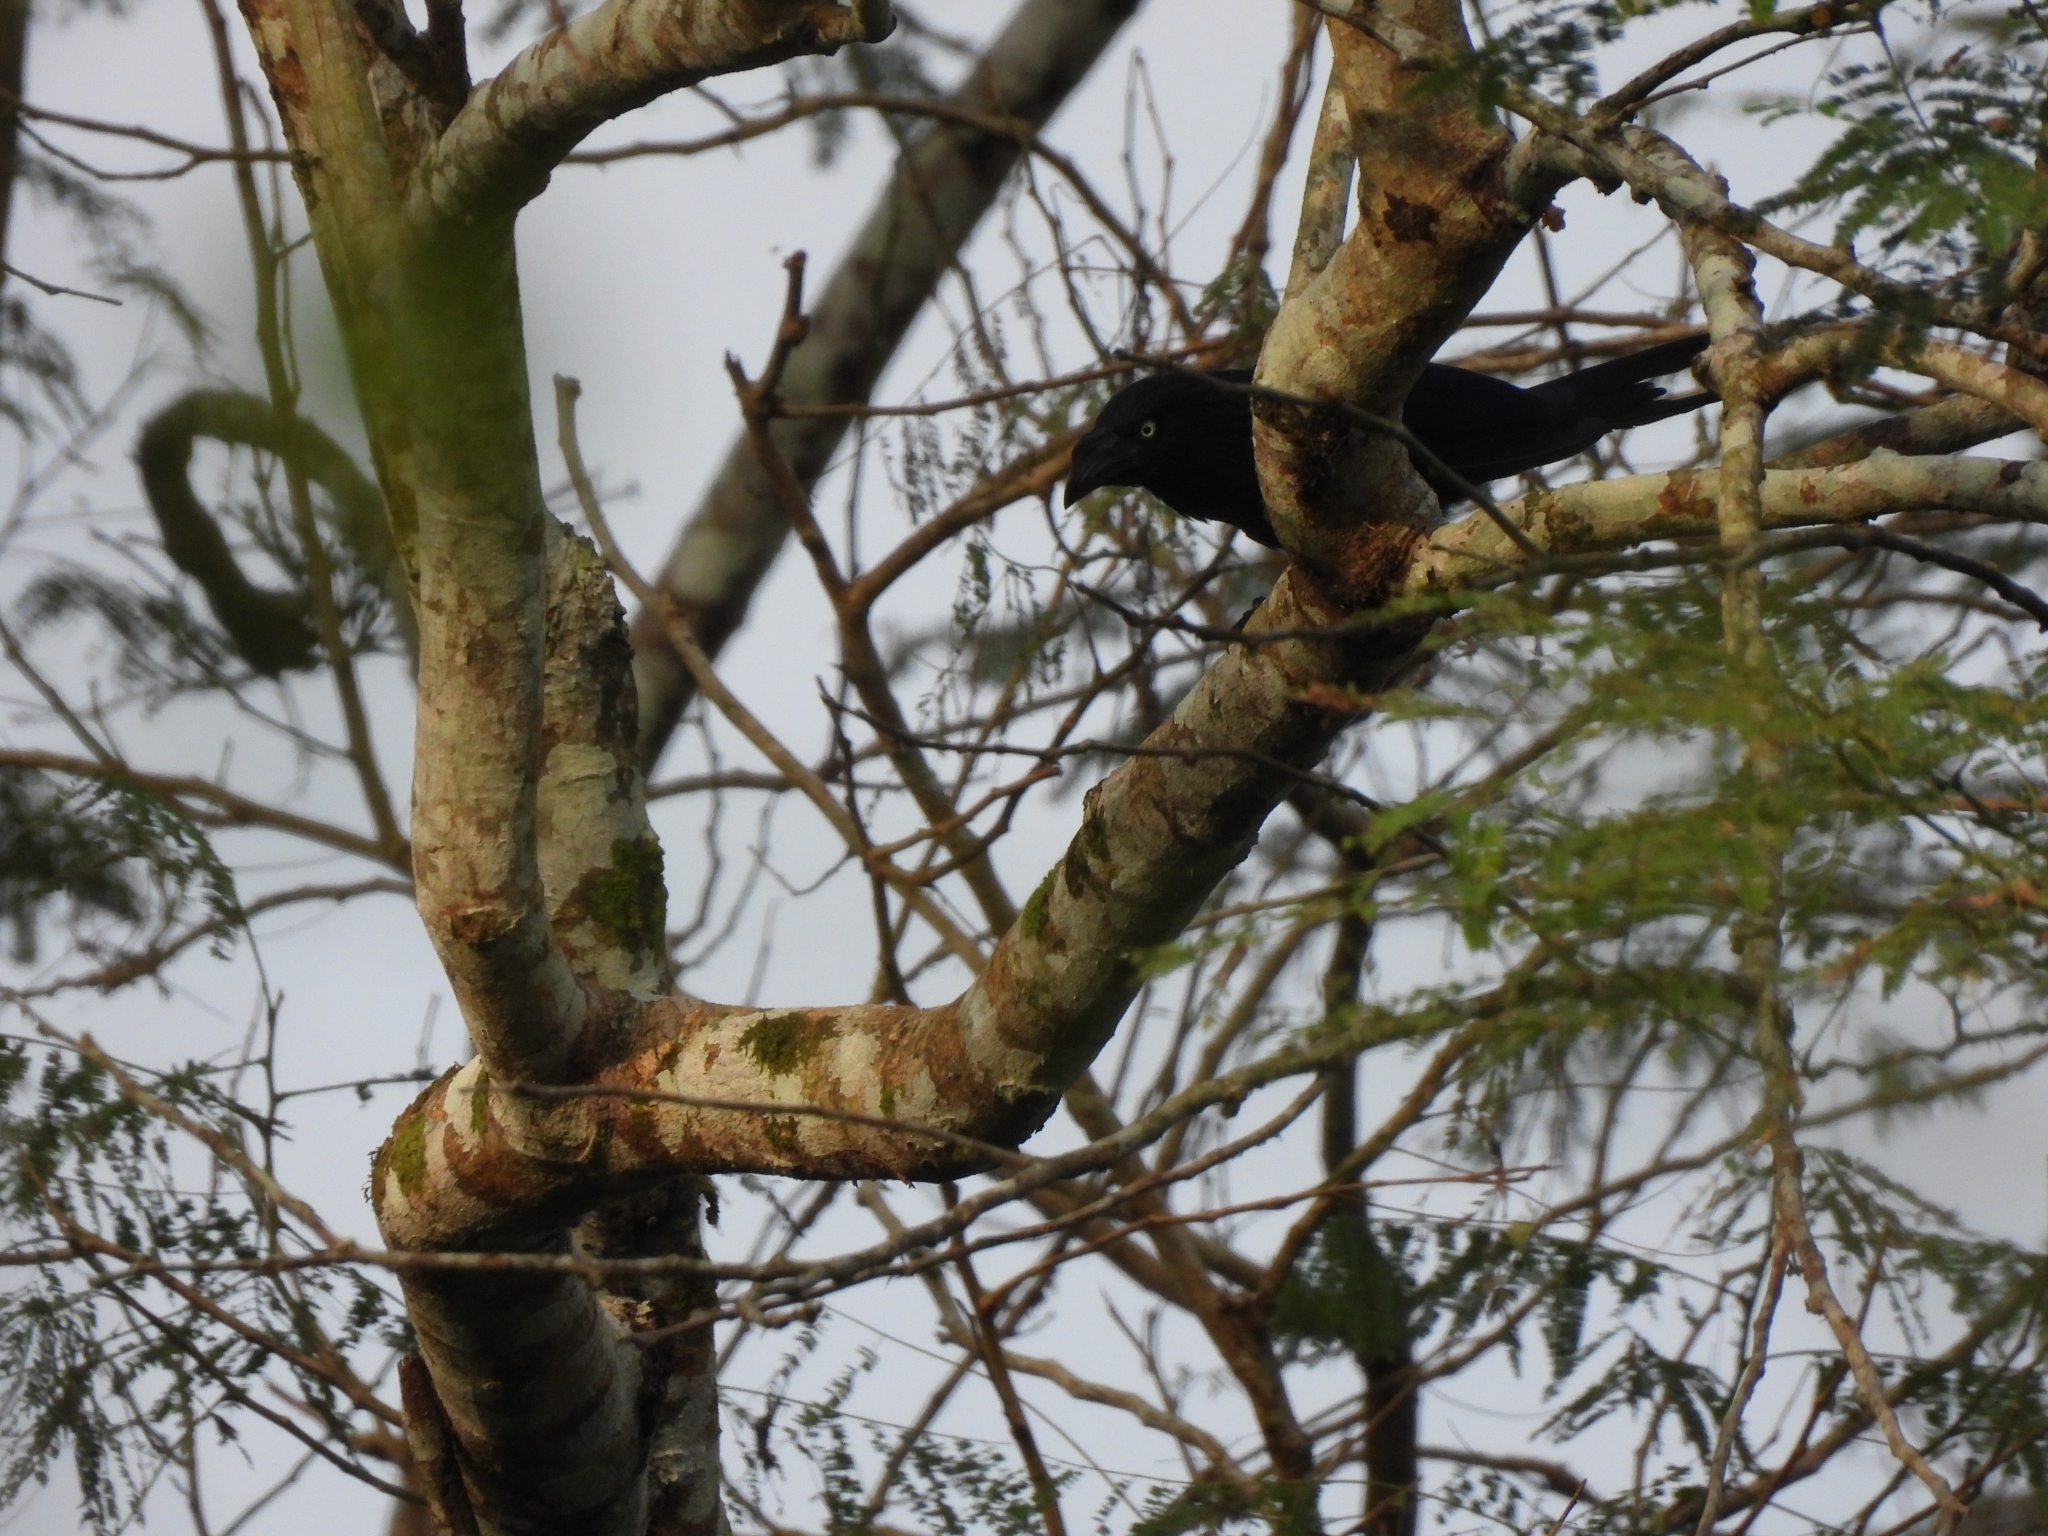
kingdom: Animalia
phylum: Chordata
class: Aves
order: Cuculiformes
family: Cuculidae
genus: Crotophaga
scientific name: Crotophaga major
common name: Greater ani
